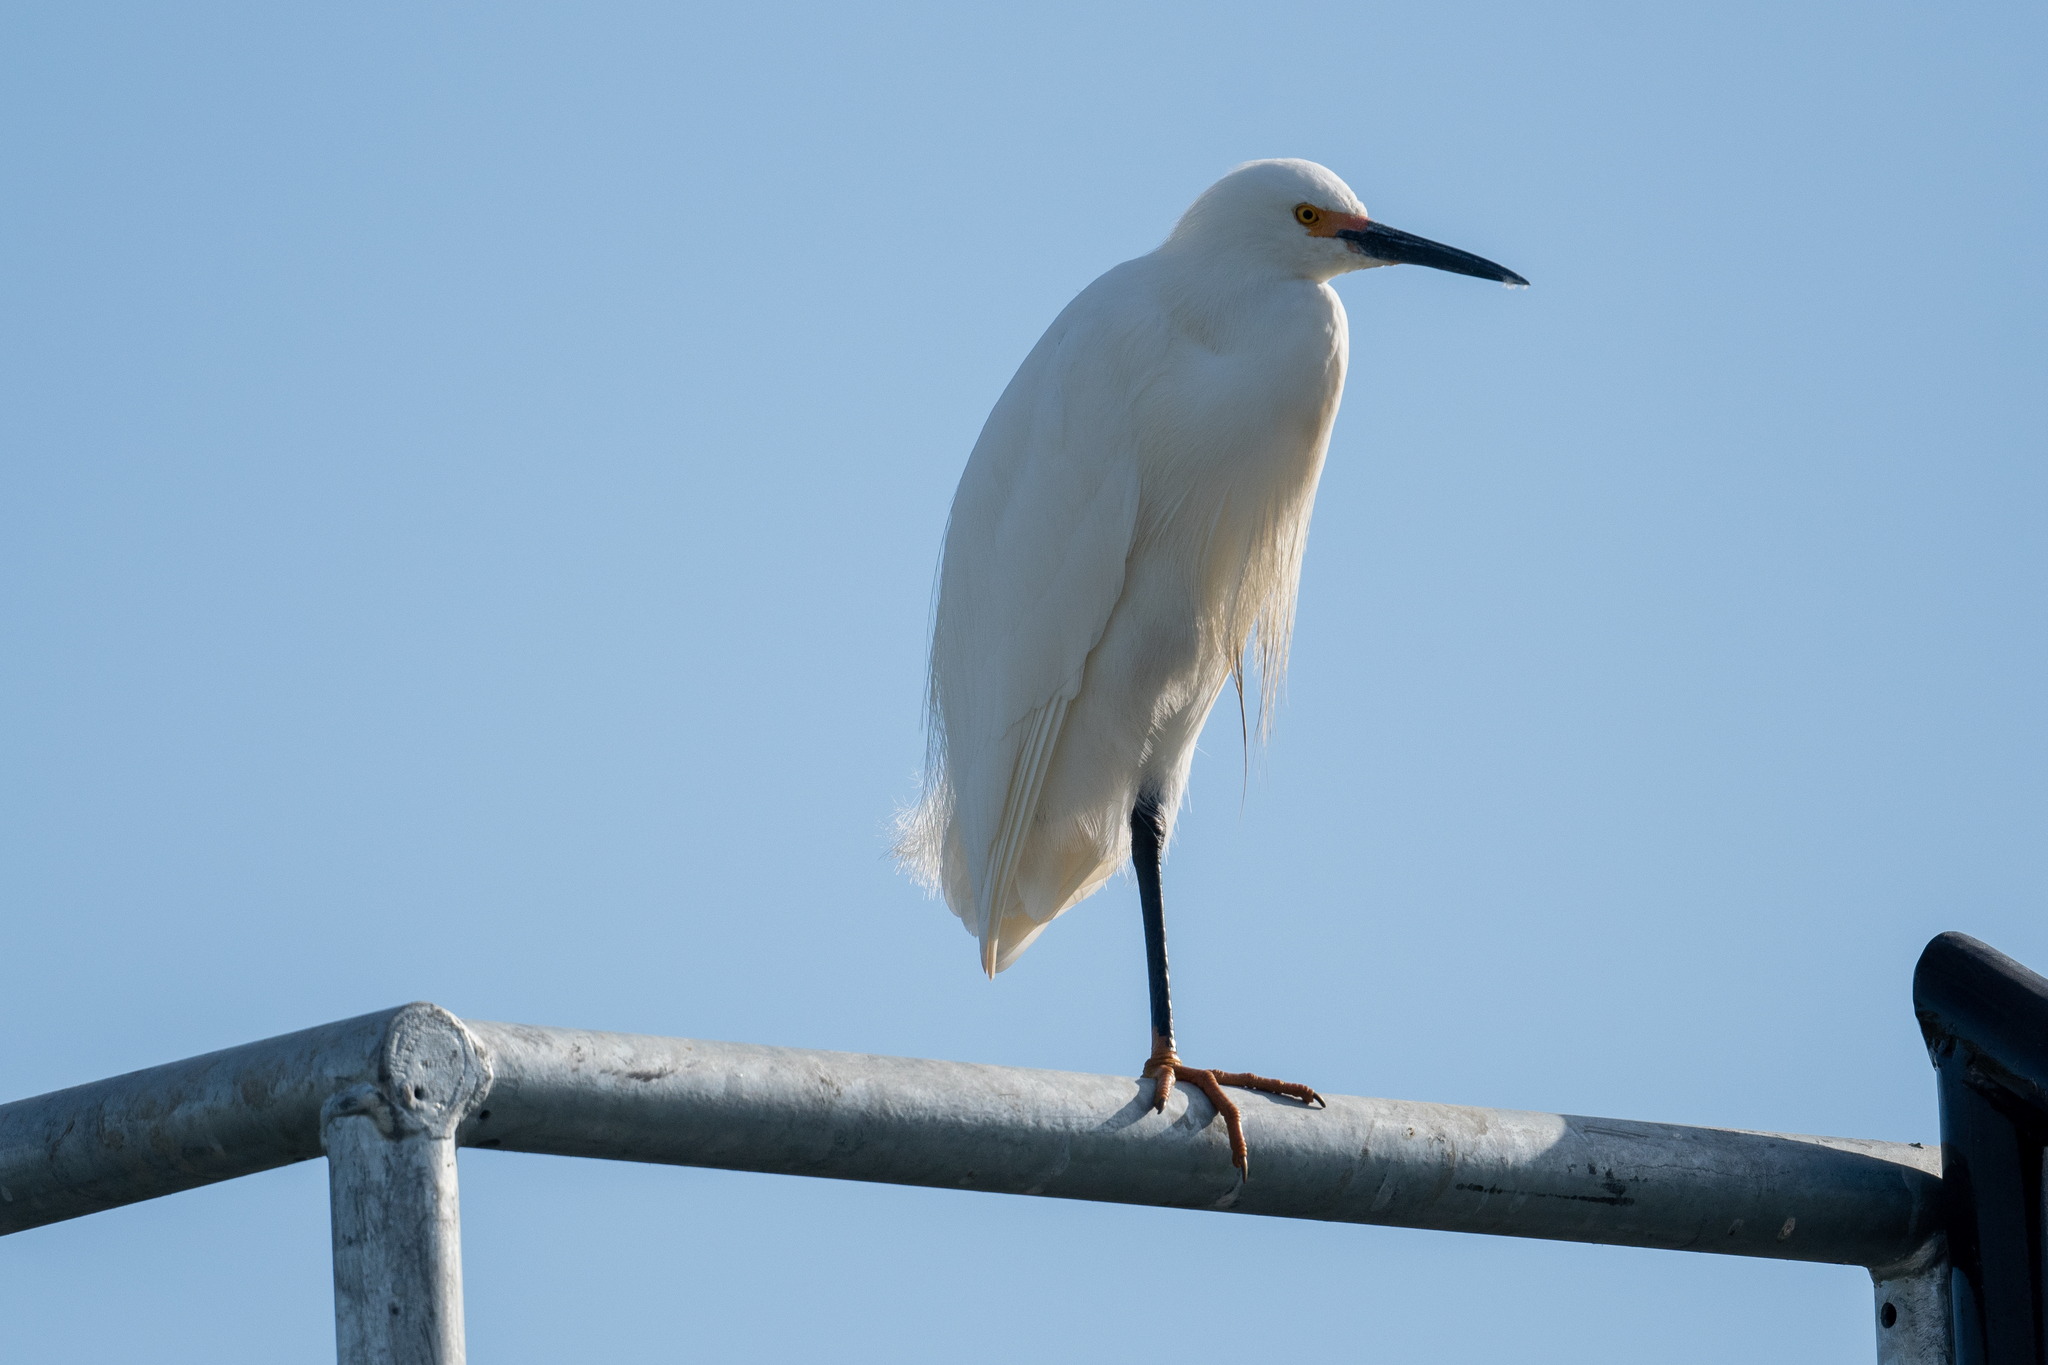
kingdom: Animalia
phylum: Chordata
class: Aves
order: Pelecaniformes
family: Ardeidae
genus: Egretta
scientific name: Egretta thula
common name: Snowy egret
